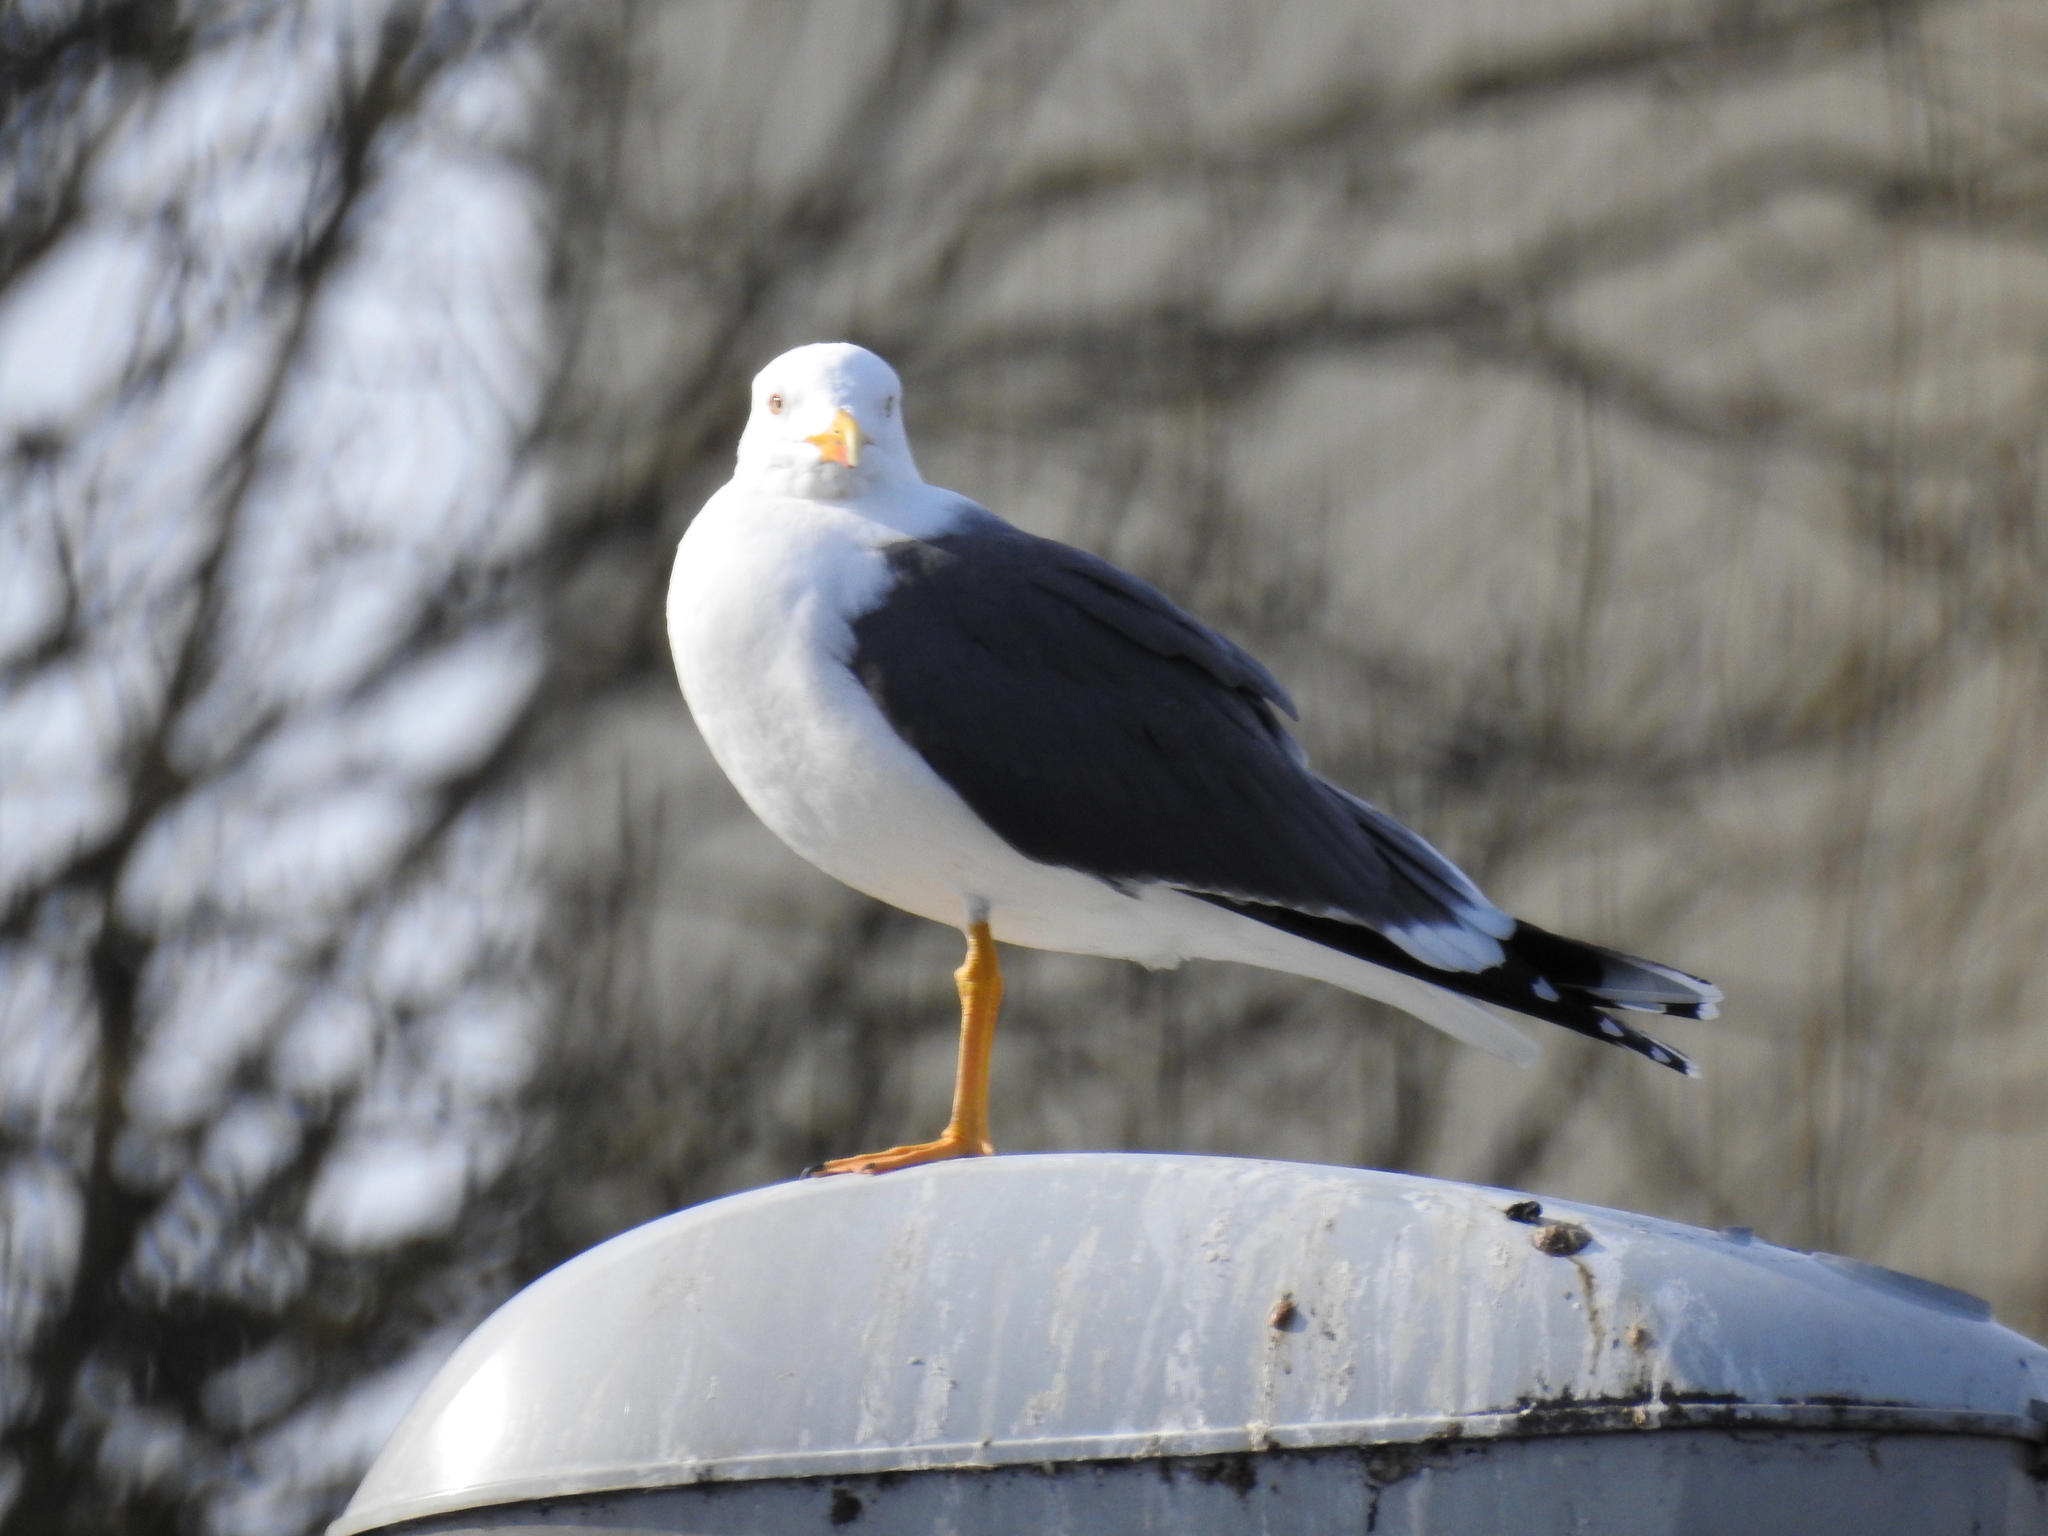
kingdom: Animalia
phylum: Chordata
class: Aves
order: Charadriiformes
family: Laridae
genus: Larus
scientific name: Larus fuscus
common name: Lesser black-backed gull
